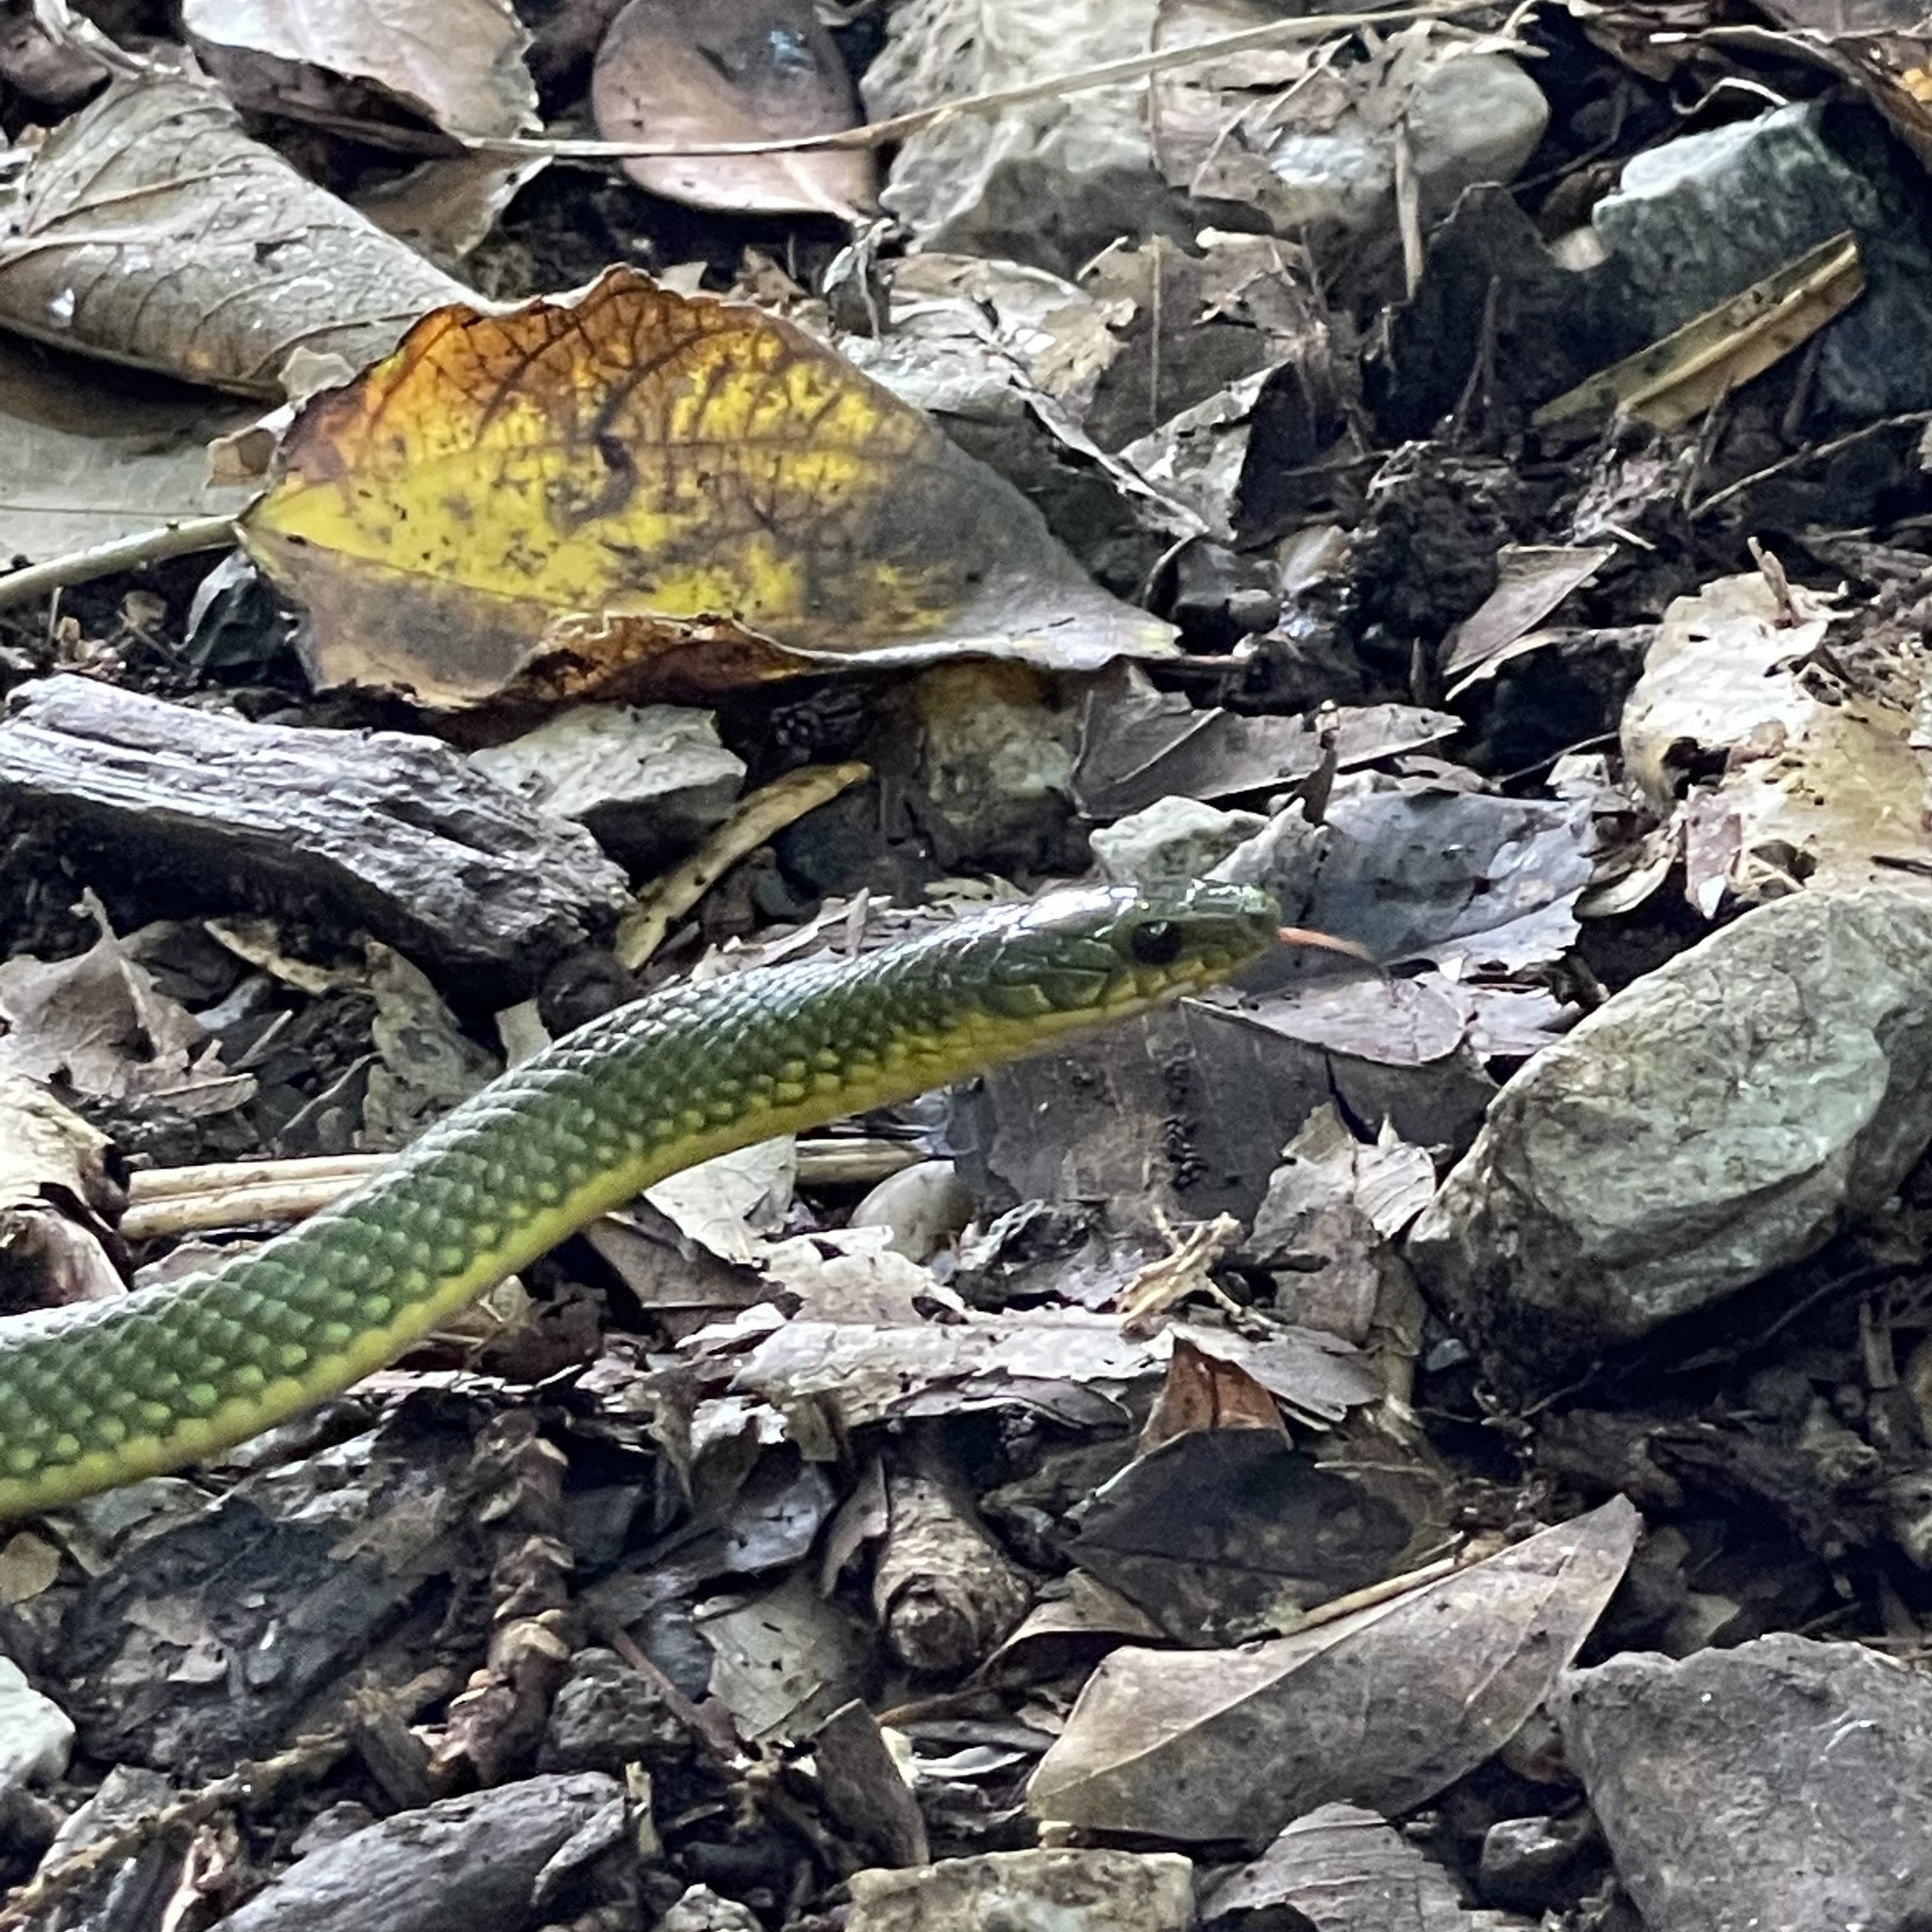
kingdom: Animalia
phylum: Chordata
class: Squamata
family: Colubridae
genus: Ptyas
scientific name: Ptyas semicarinata
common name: Ryukyu green snake
